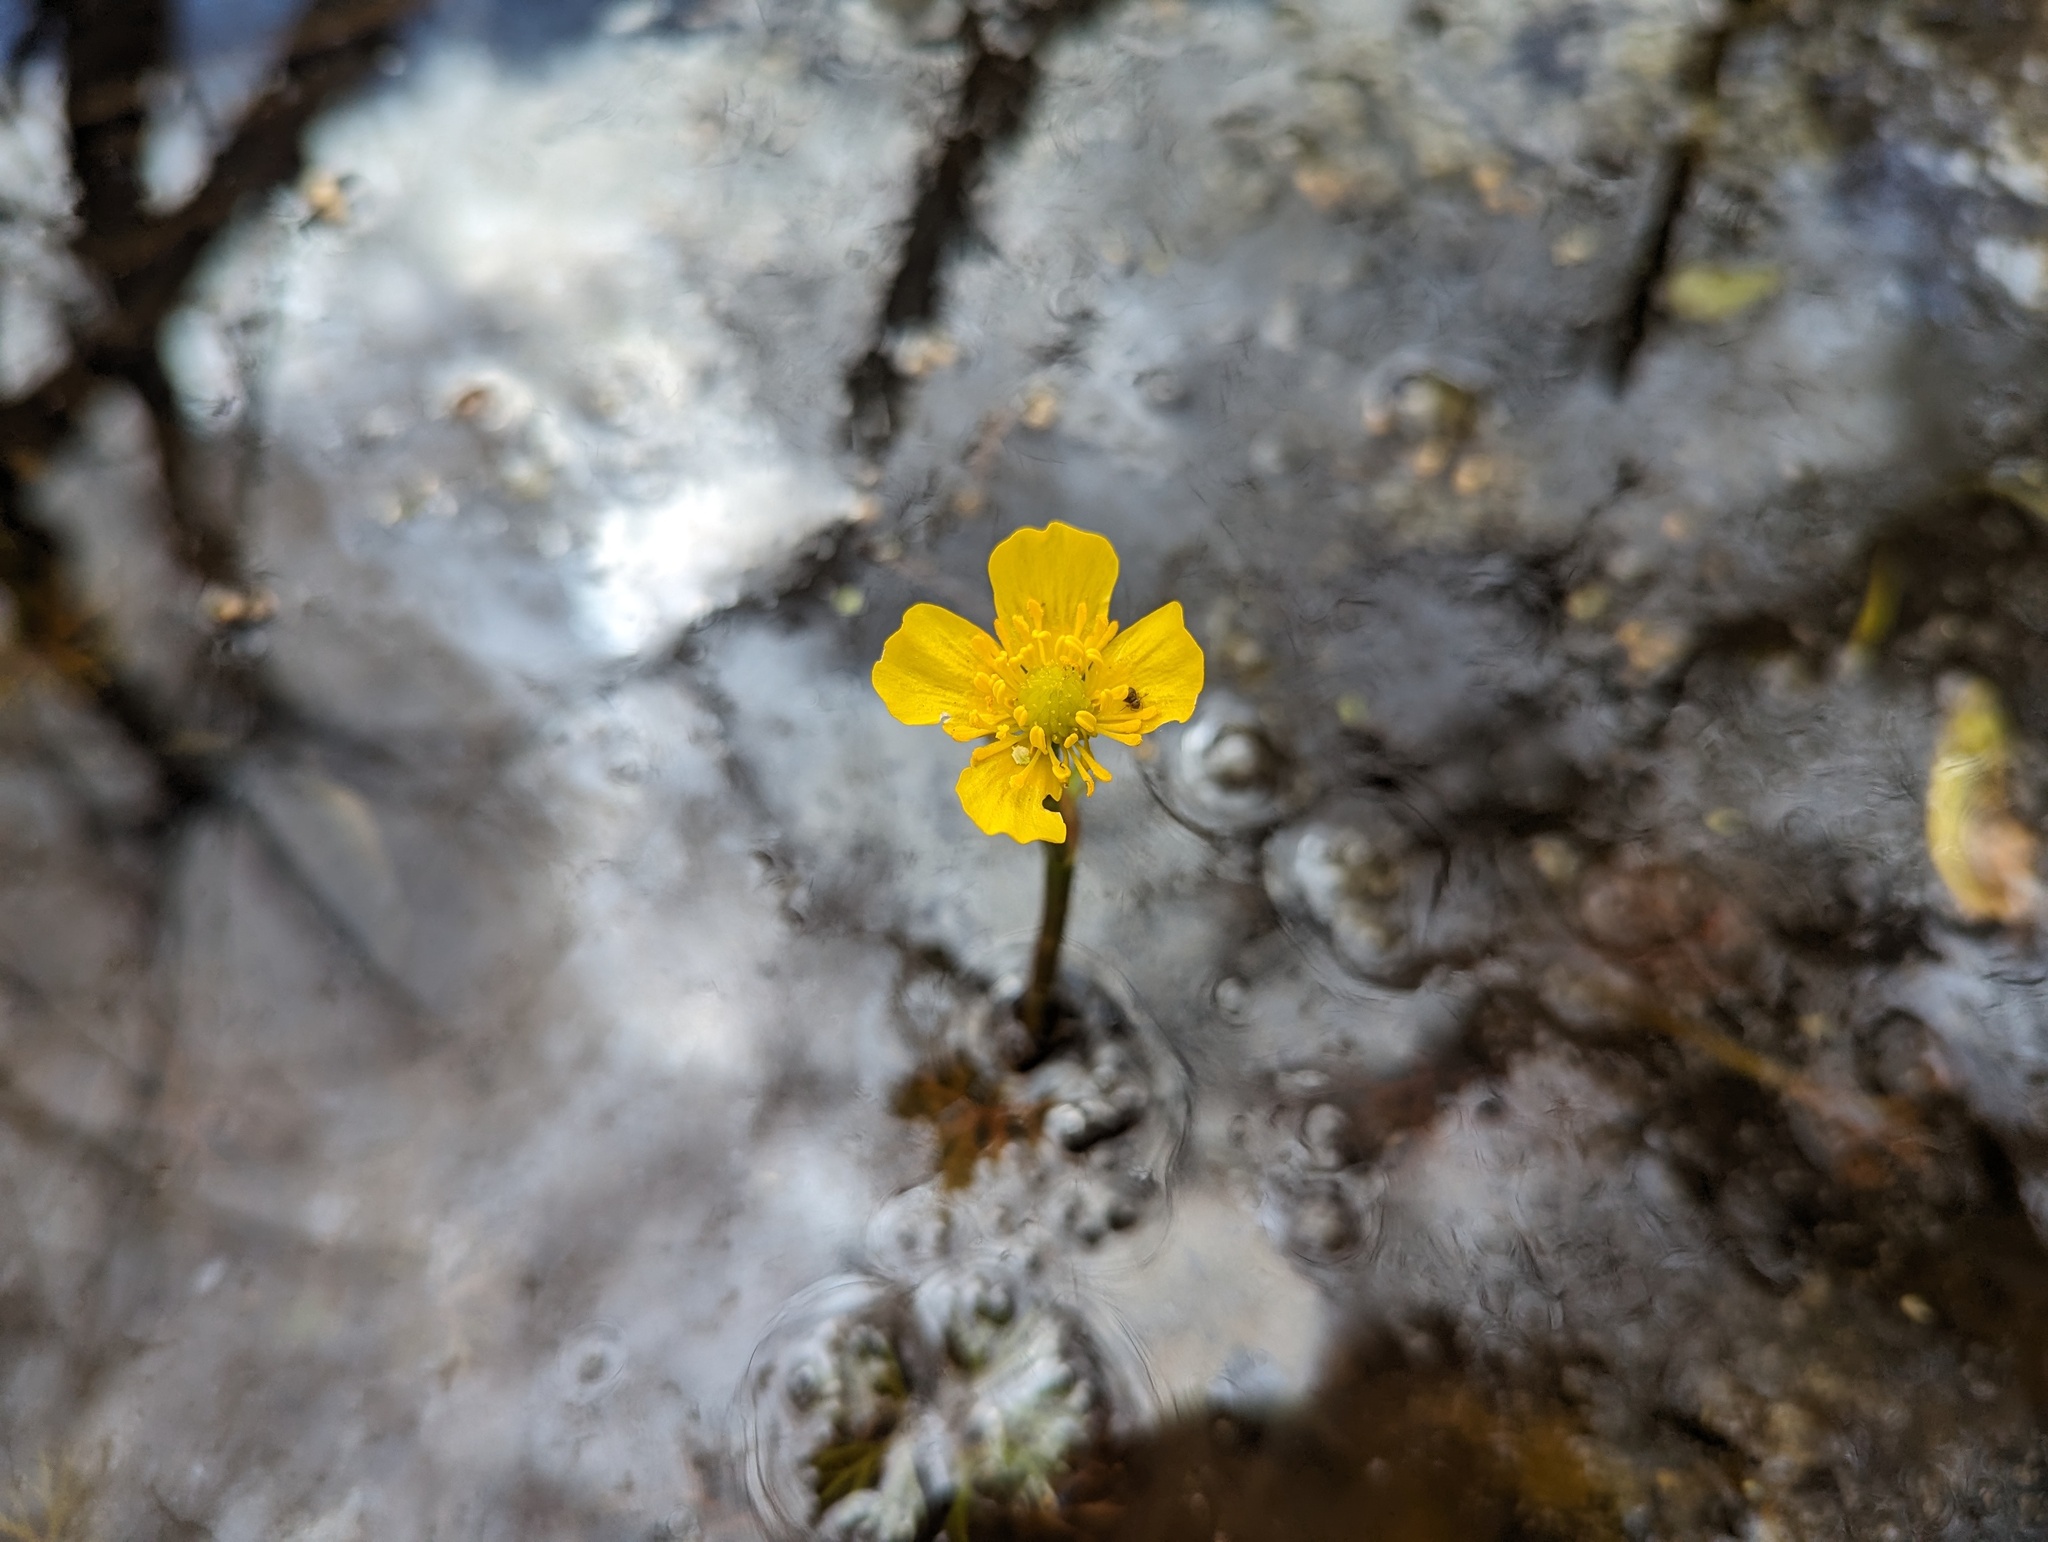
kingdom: Plantae
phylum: Tracheophyta
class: Magnoliopsida
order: Ranunculales
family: Ranunculaceae
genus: Ranunculus
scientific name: Ranunculus flabellaris
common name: Yellow water-crowfoot
